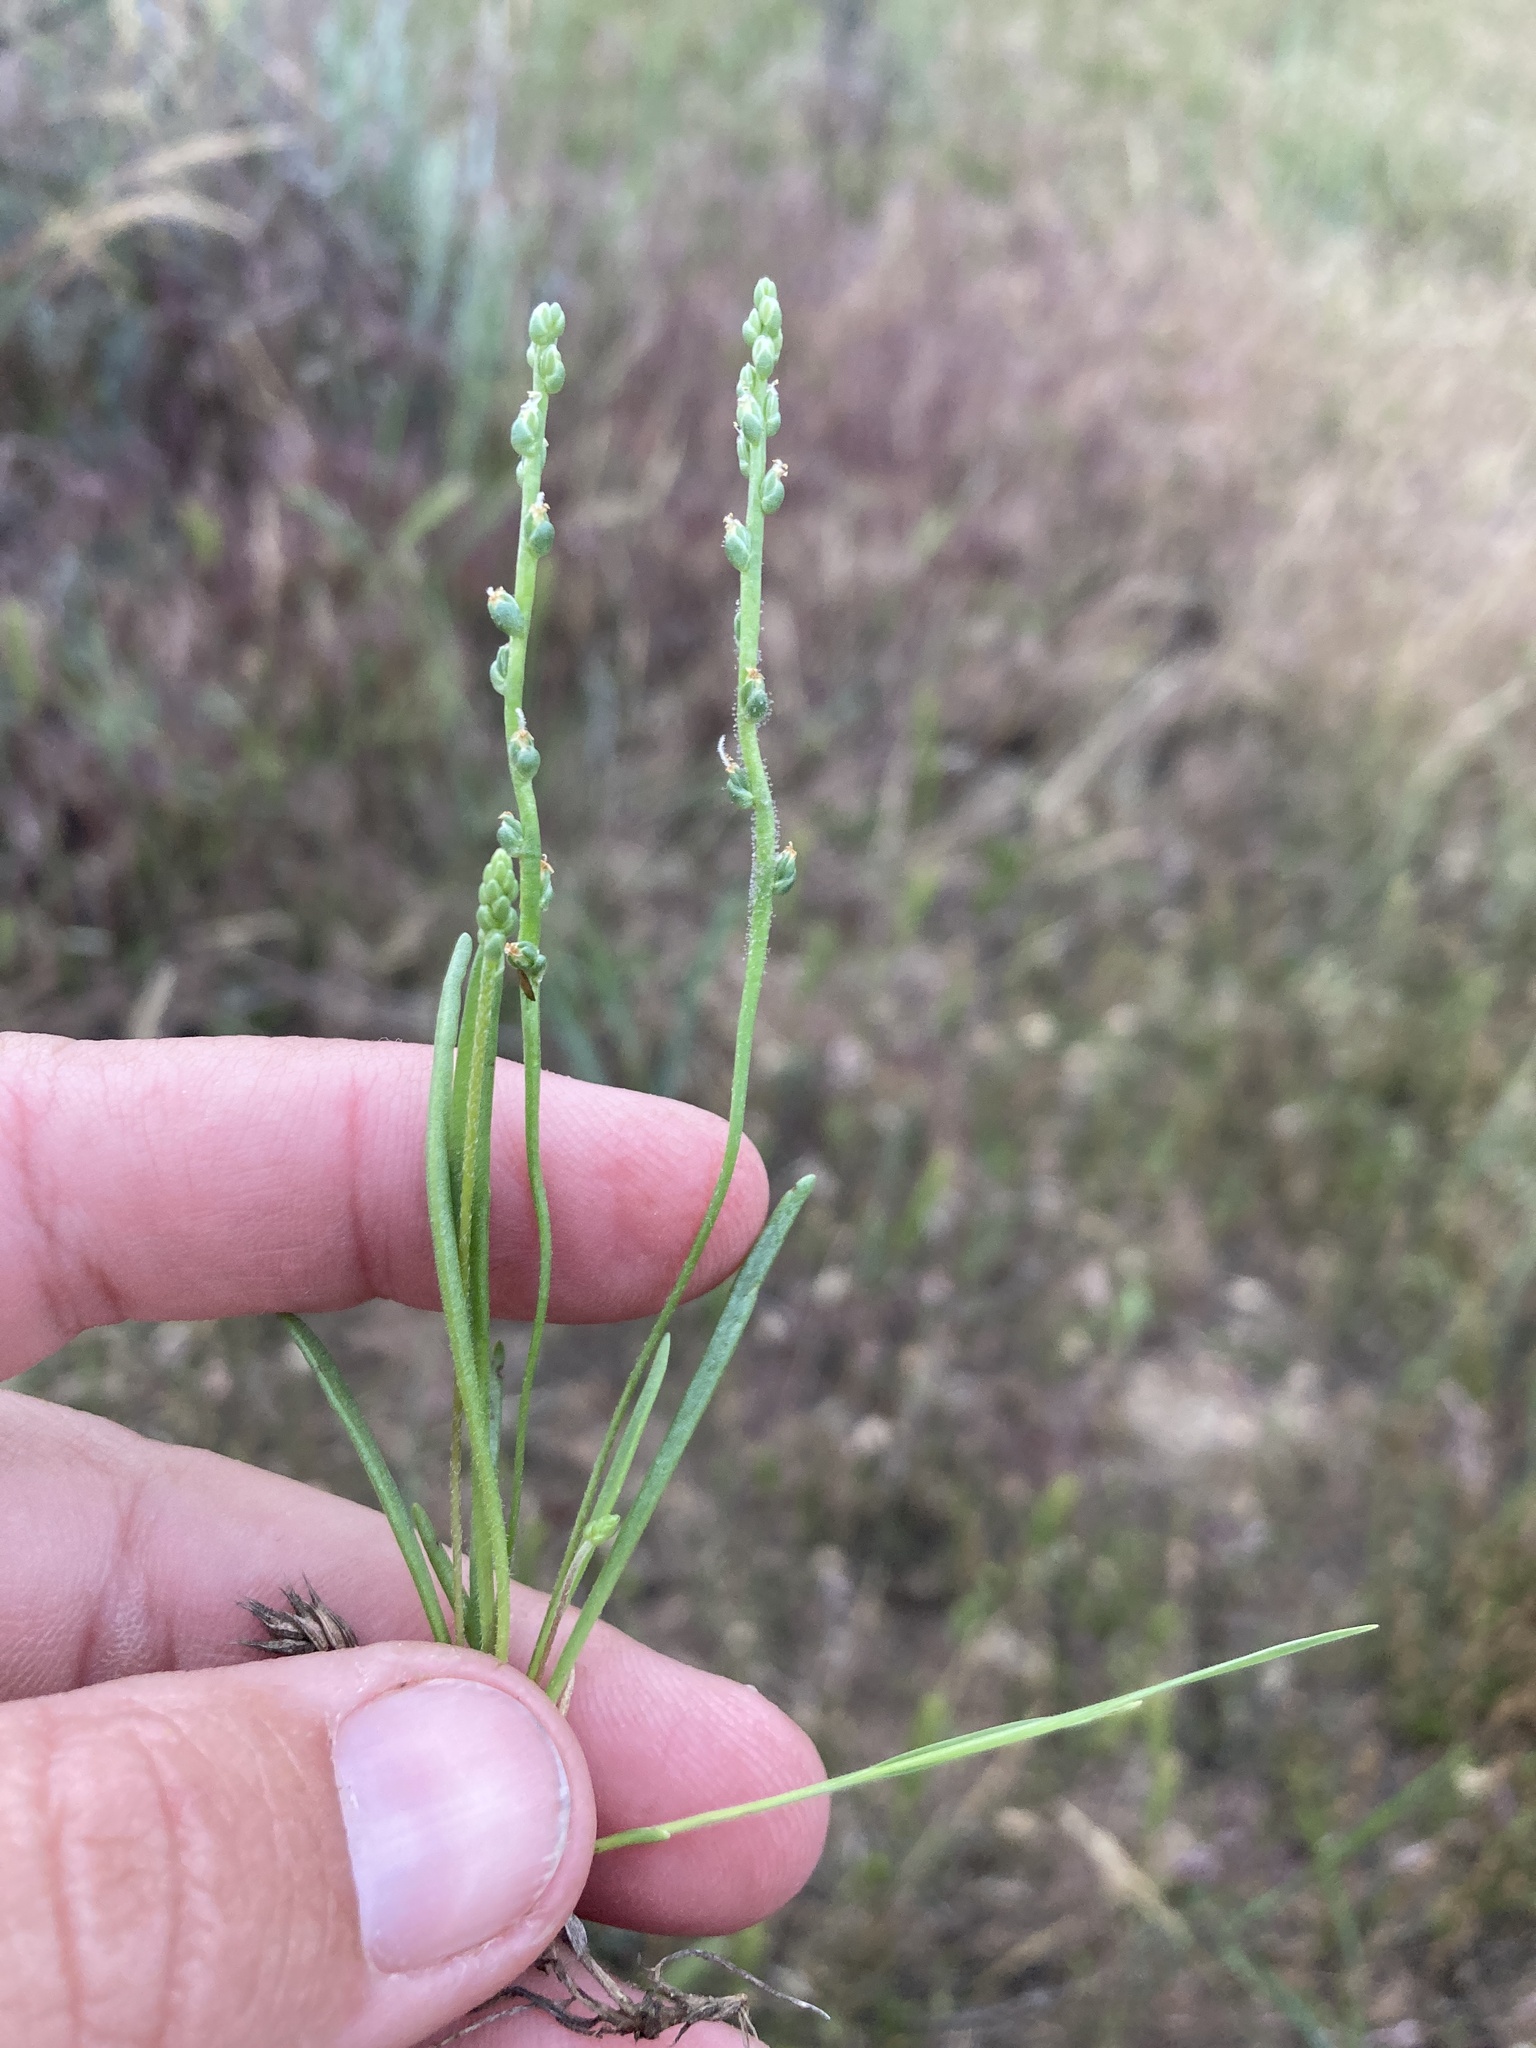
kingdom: Plantae
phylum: Tracheophyta
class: Magnoliopsida
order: Lamiales
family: Plantaginaceae
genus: Plantago
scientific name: Plantago elongata
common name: Linear-leaved plantain
